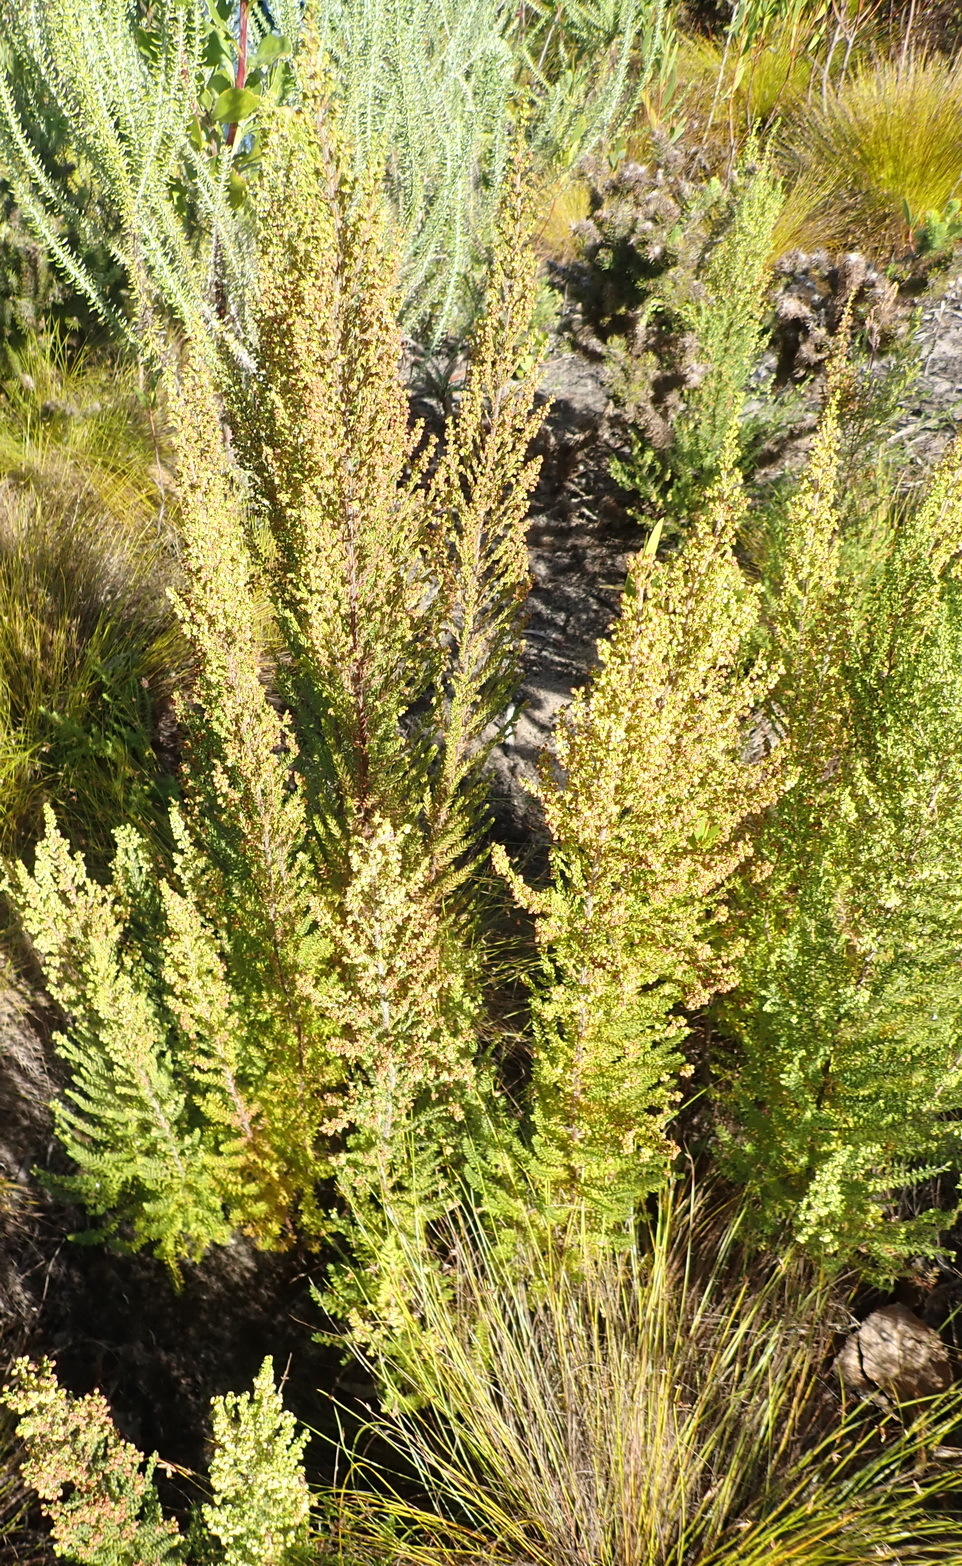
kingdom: Plantae
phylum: Tracheophyta
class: Magnoliopsida
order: Ericales
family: Ericaceae
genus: Erica
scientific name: Erica leucopelta
